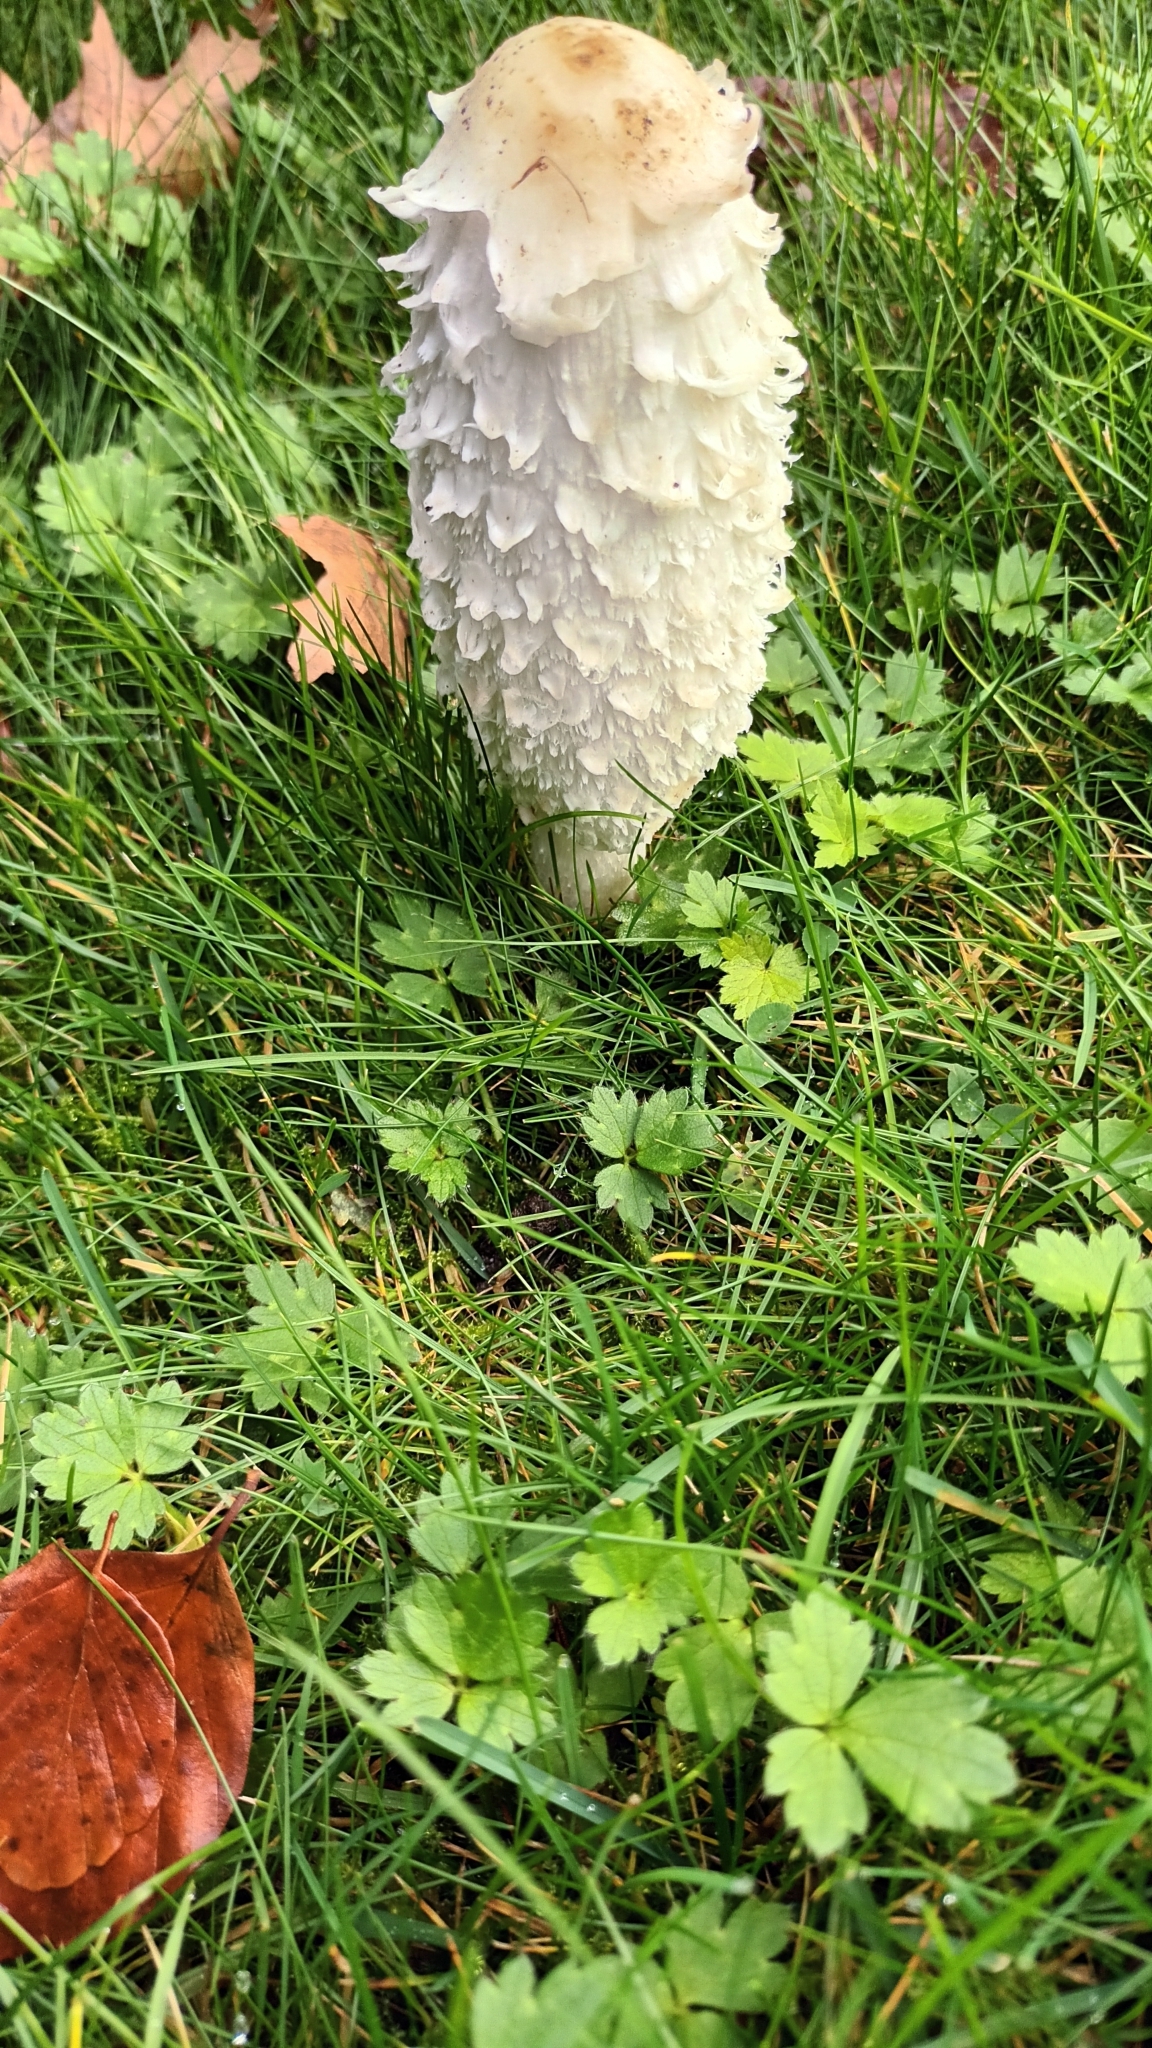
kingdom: Fungi
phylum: Basidiomycota
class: Agaricomycetes
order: Agaricales
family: Agaricaceae
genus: Coprinus
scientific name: Coprinus comatus
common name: Lawyer's wig
